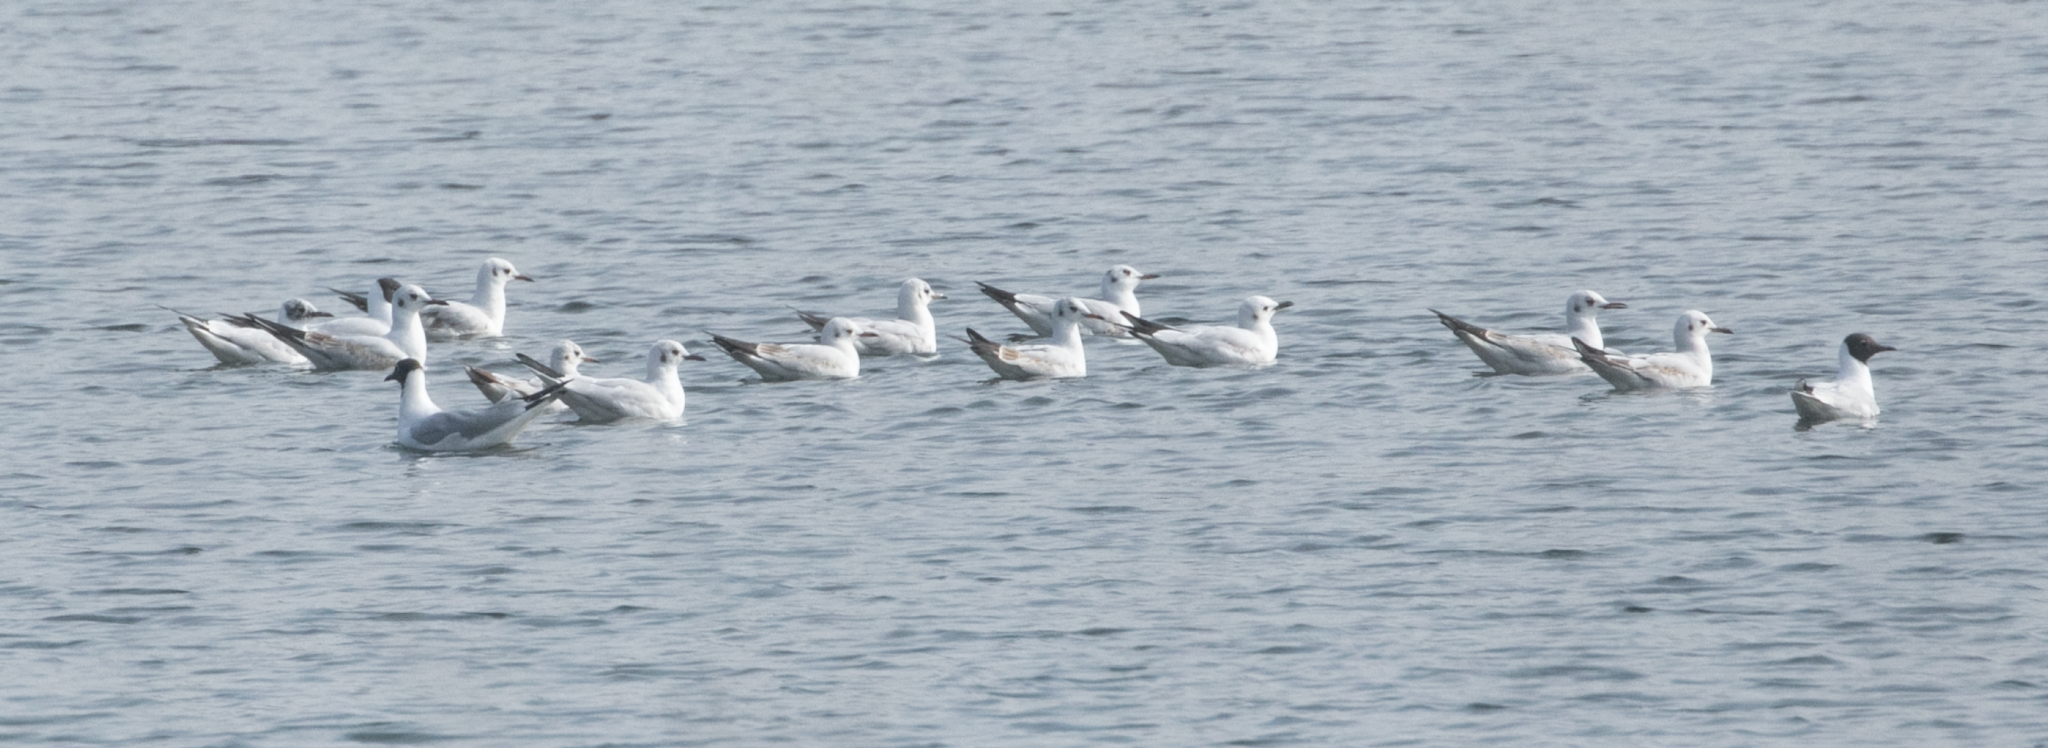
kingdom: Animalia
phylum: Chordata
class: Aves
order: Charadriiformes
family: Laridae
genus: Chroicocephalus
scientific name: Chroicocephalus ridibundus
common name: Black-headed gull
